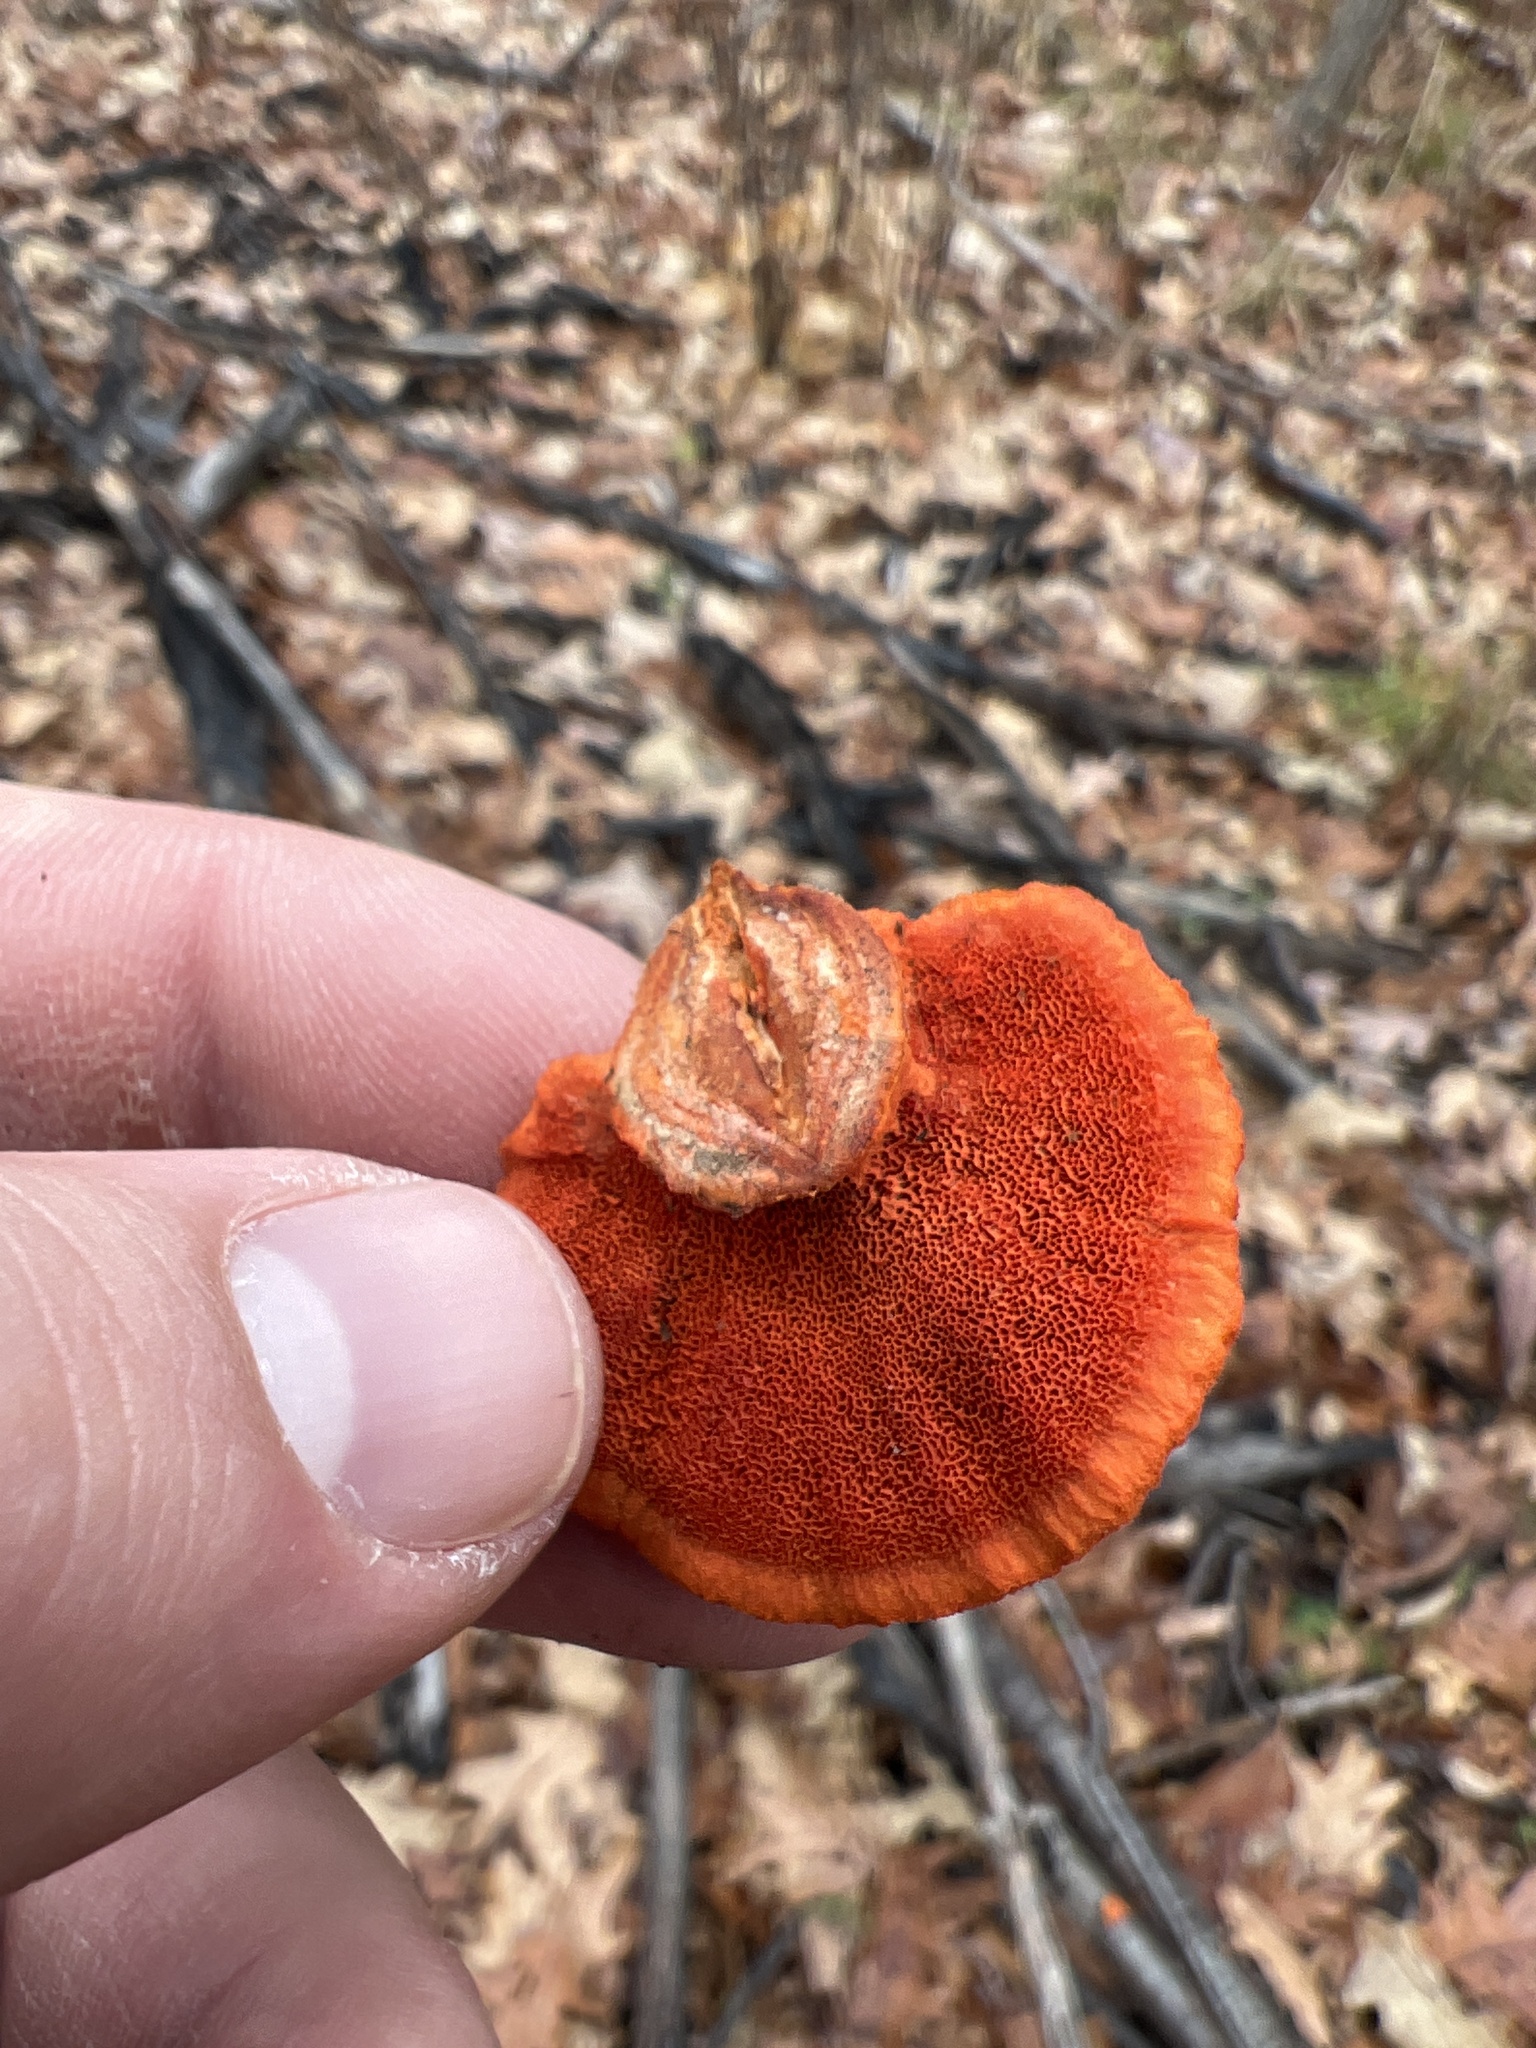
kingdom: Fungi
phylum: Basidiomycota
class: Agaricomycetes
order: Polyporales
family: Polyporaceae
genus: Trametes
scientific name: Trametes cinnabarina
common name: Northern cinnabar polypore
